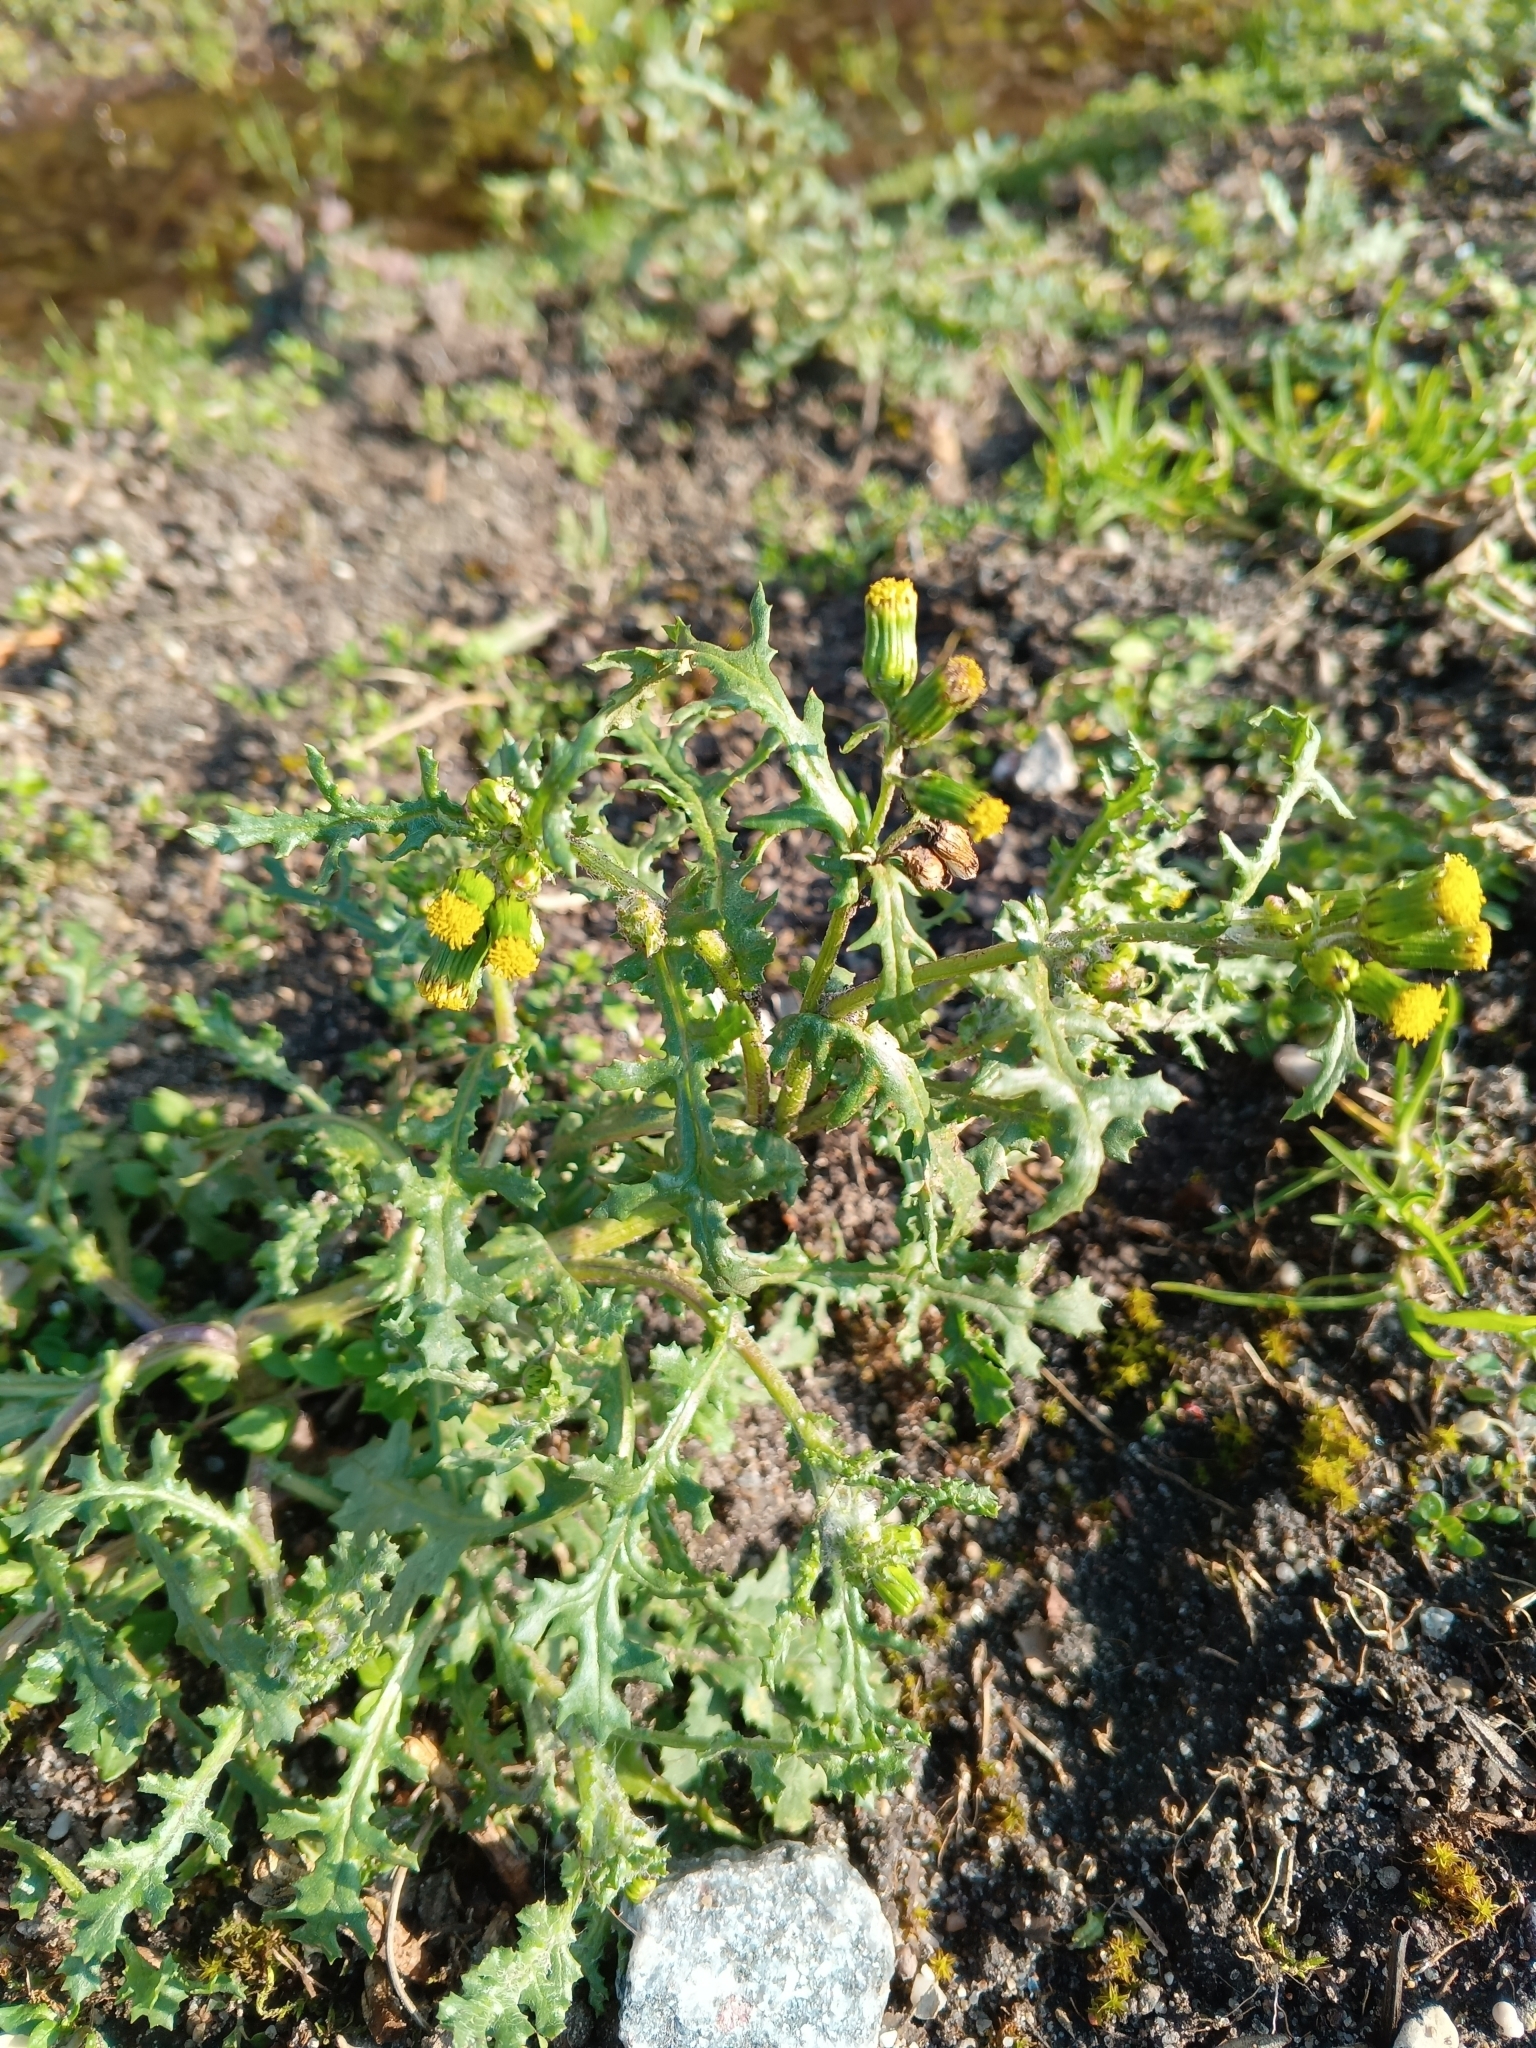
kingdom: Plantae
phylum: Tracheophyta
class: Magnoliopsida
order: Asterales
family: Asteraceae
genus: Senecio
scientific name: Senecio vulgaris
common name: Old-man-in-the-spring
